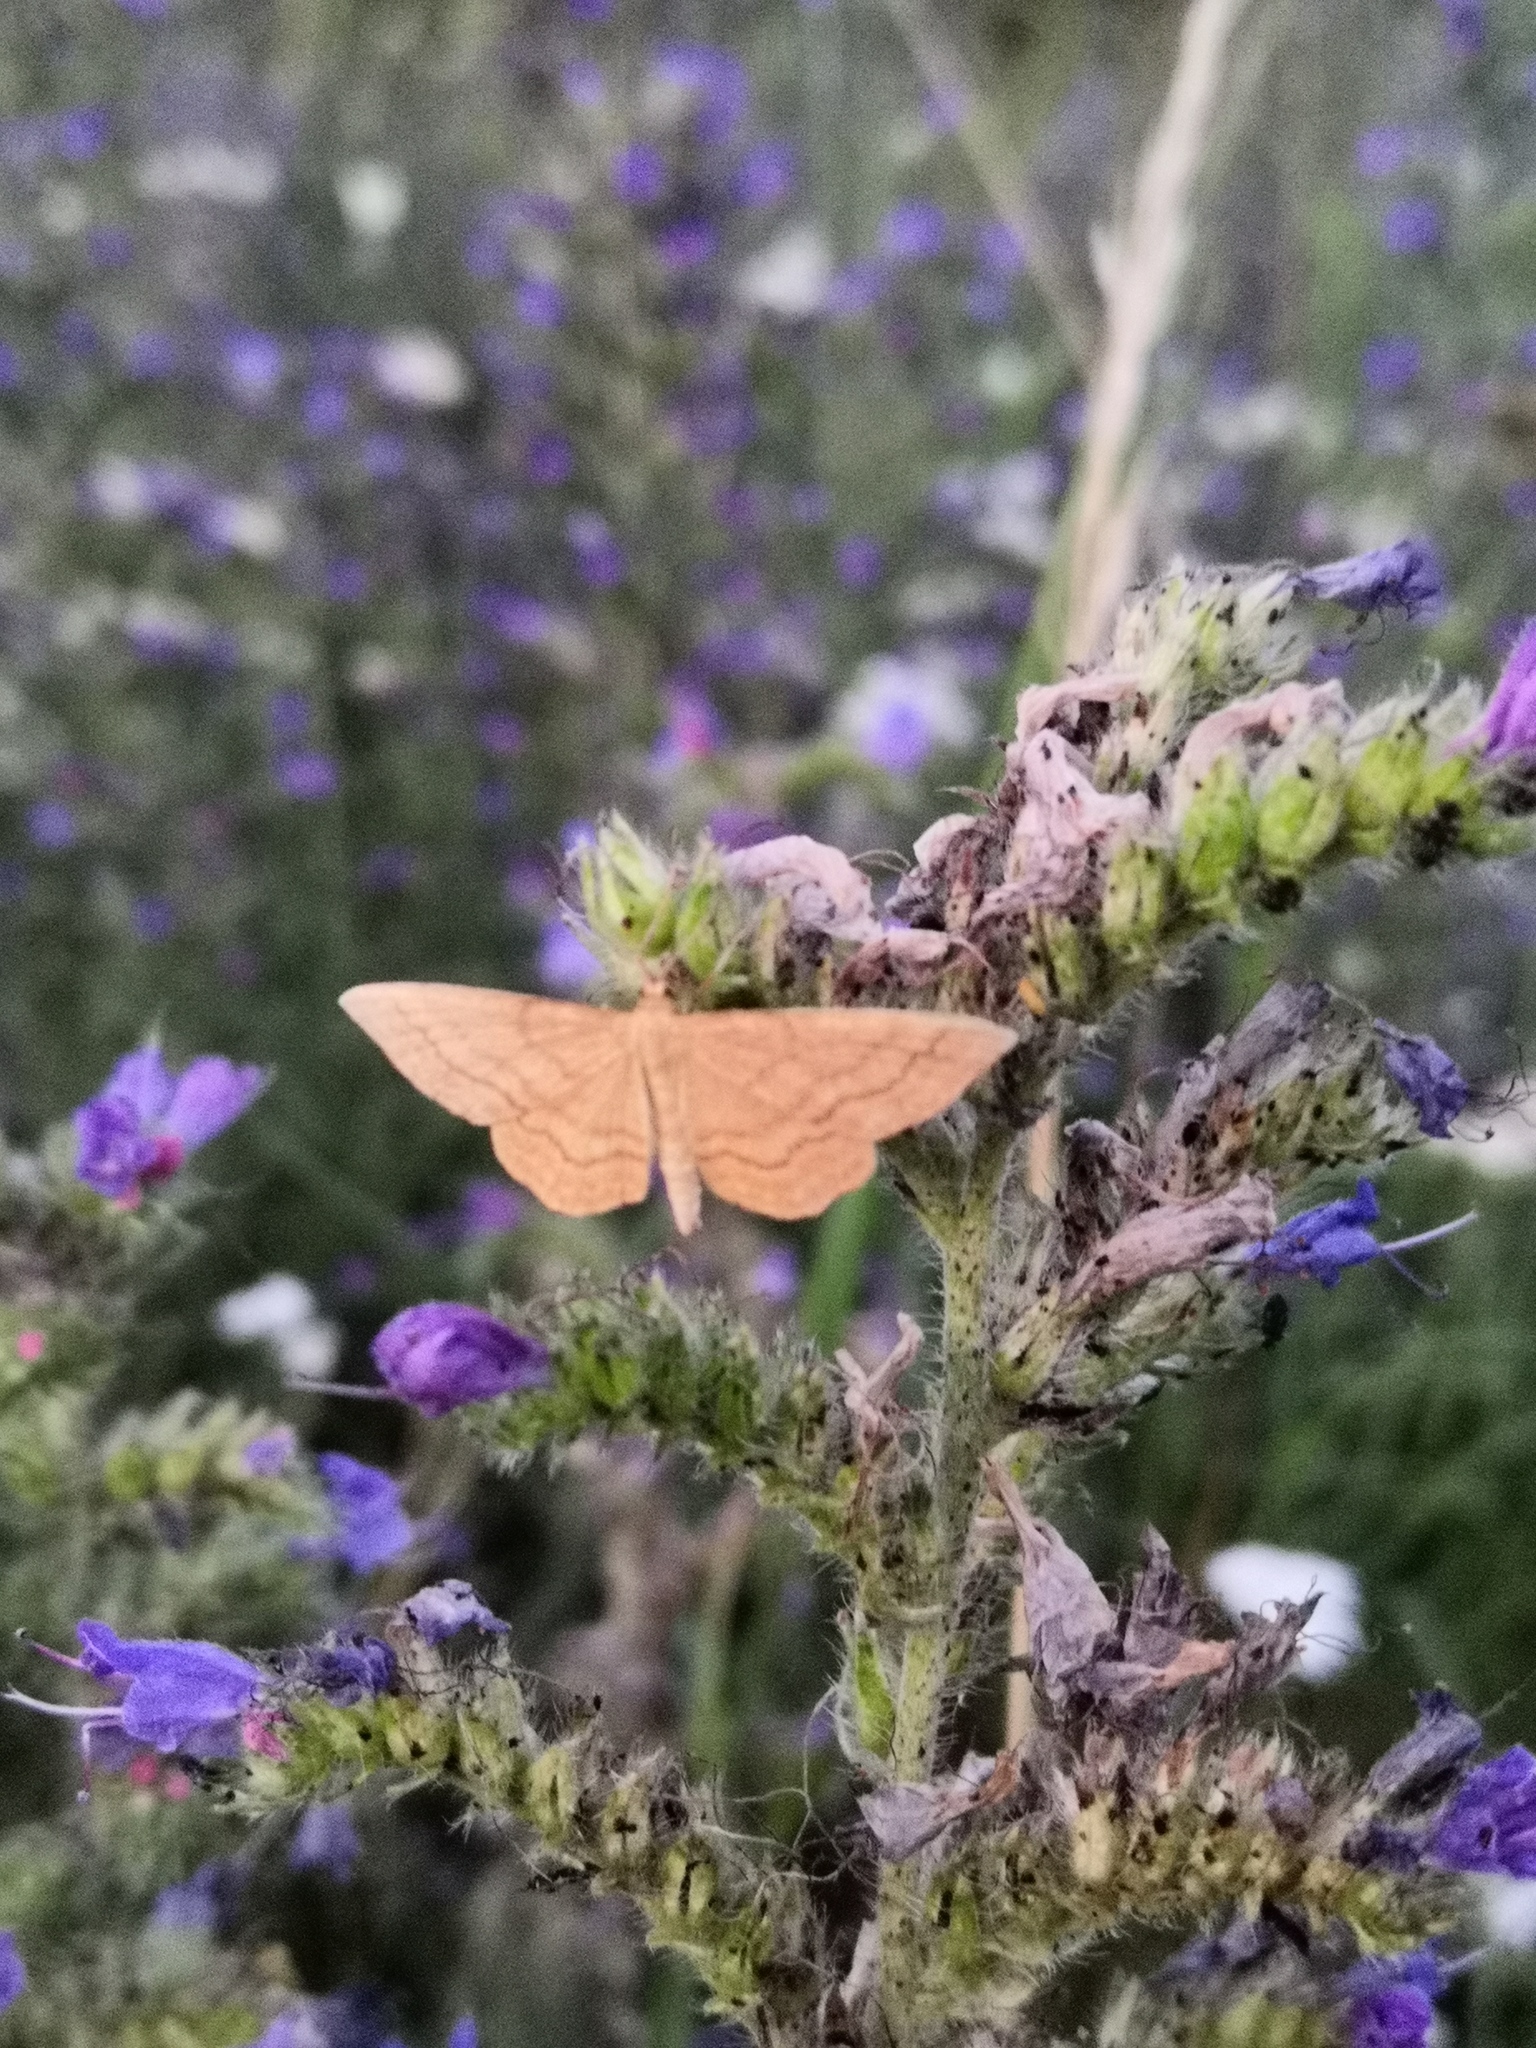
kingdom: Animalia
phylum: Arthropoda
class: Insecta
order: Lepidoptera
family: Geometridae
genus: Idaea
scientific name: Idaea ochrata
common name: Bright wave
